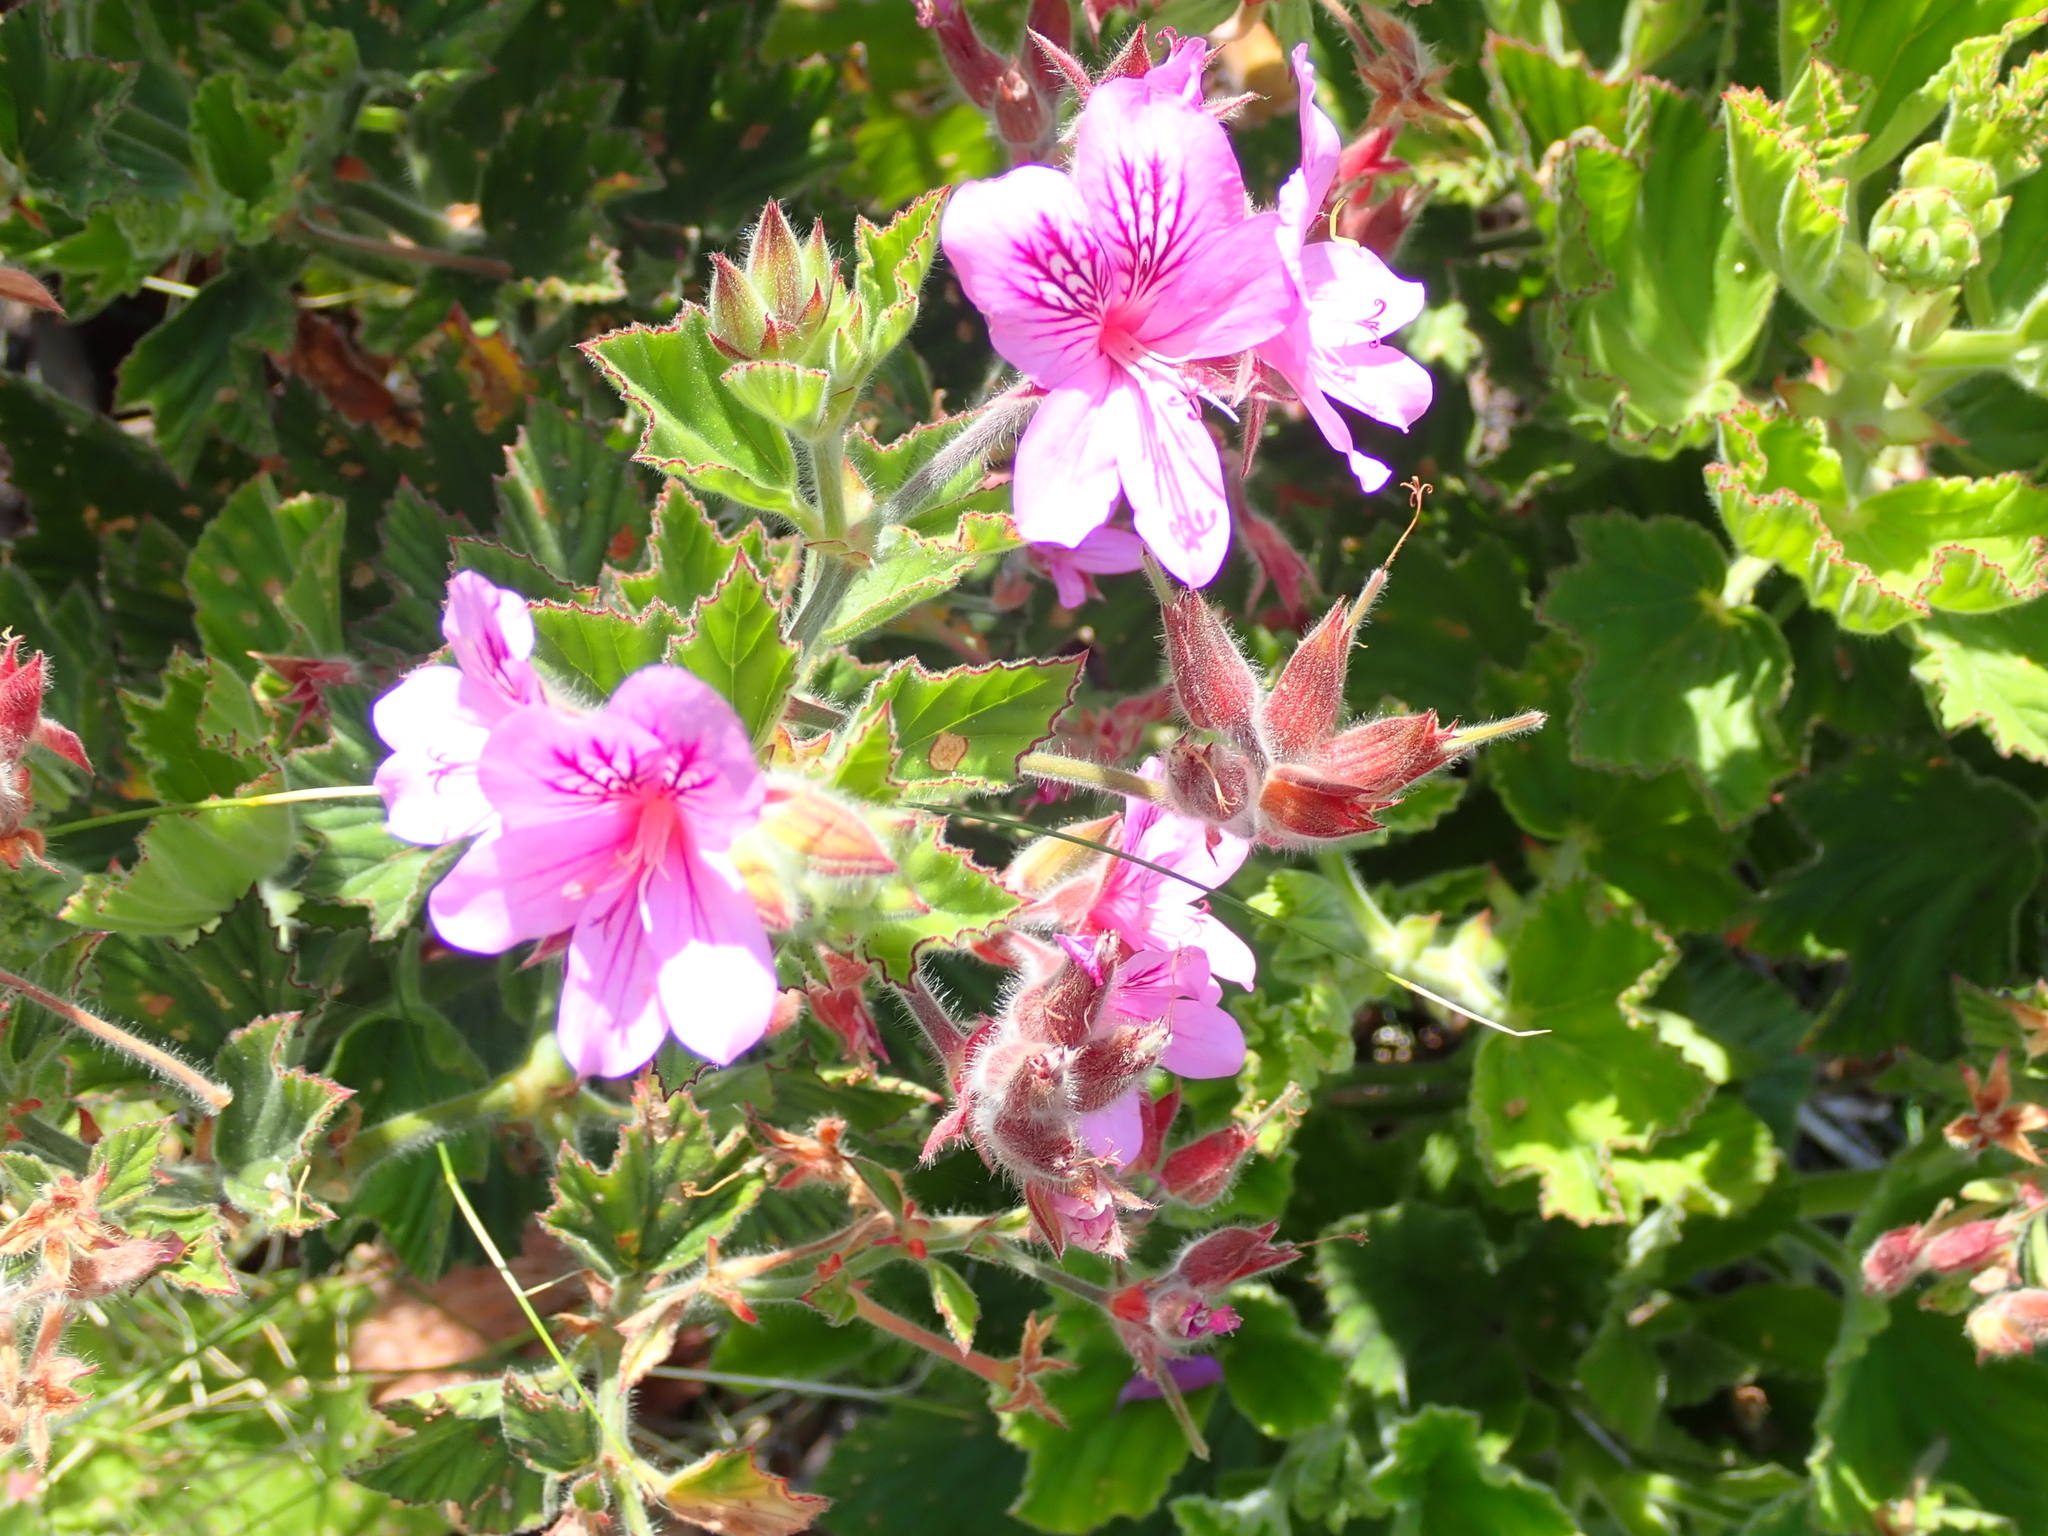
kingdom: Plantae
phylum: Tracheophyta
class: Magnoliopsida
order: Geraniales
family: Geraniaceae
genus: Pelargonium
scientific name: Pelargonium cucullatum
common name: Tree pelargonium
